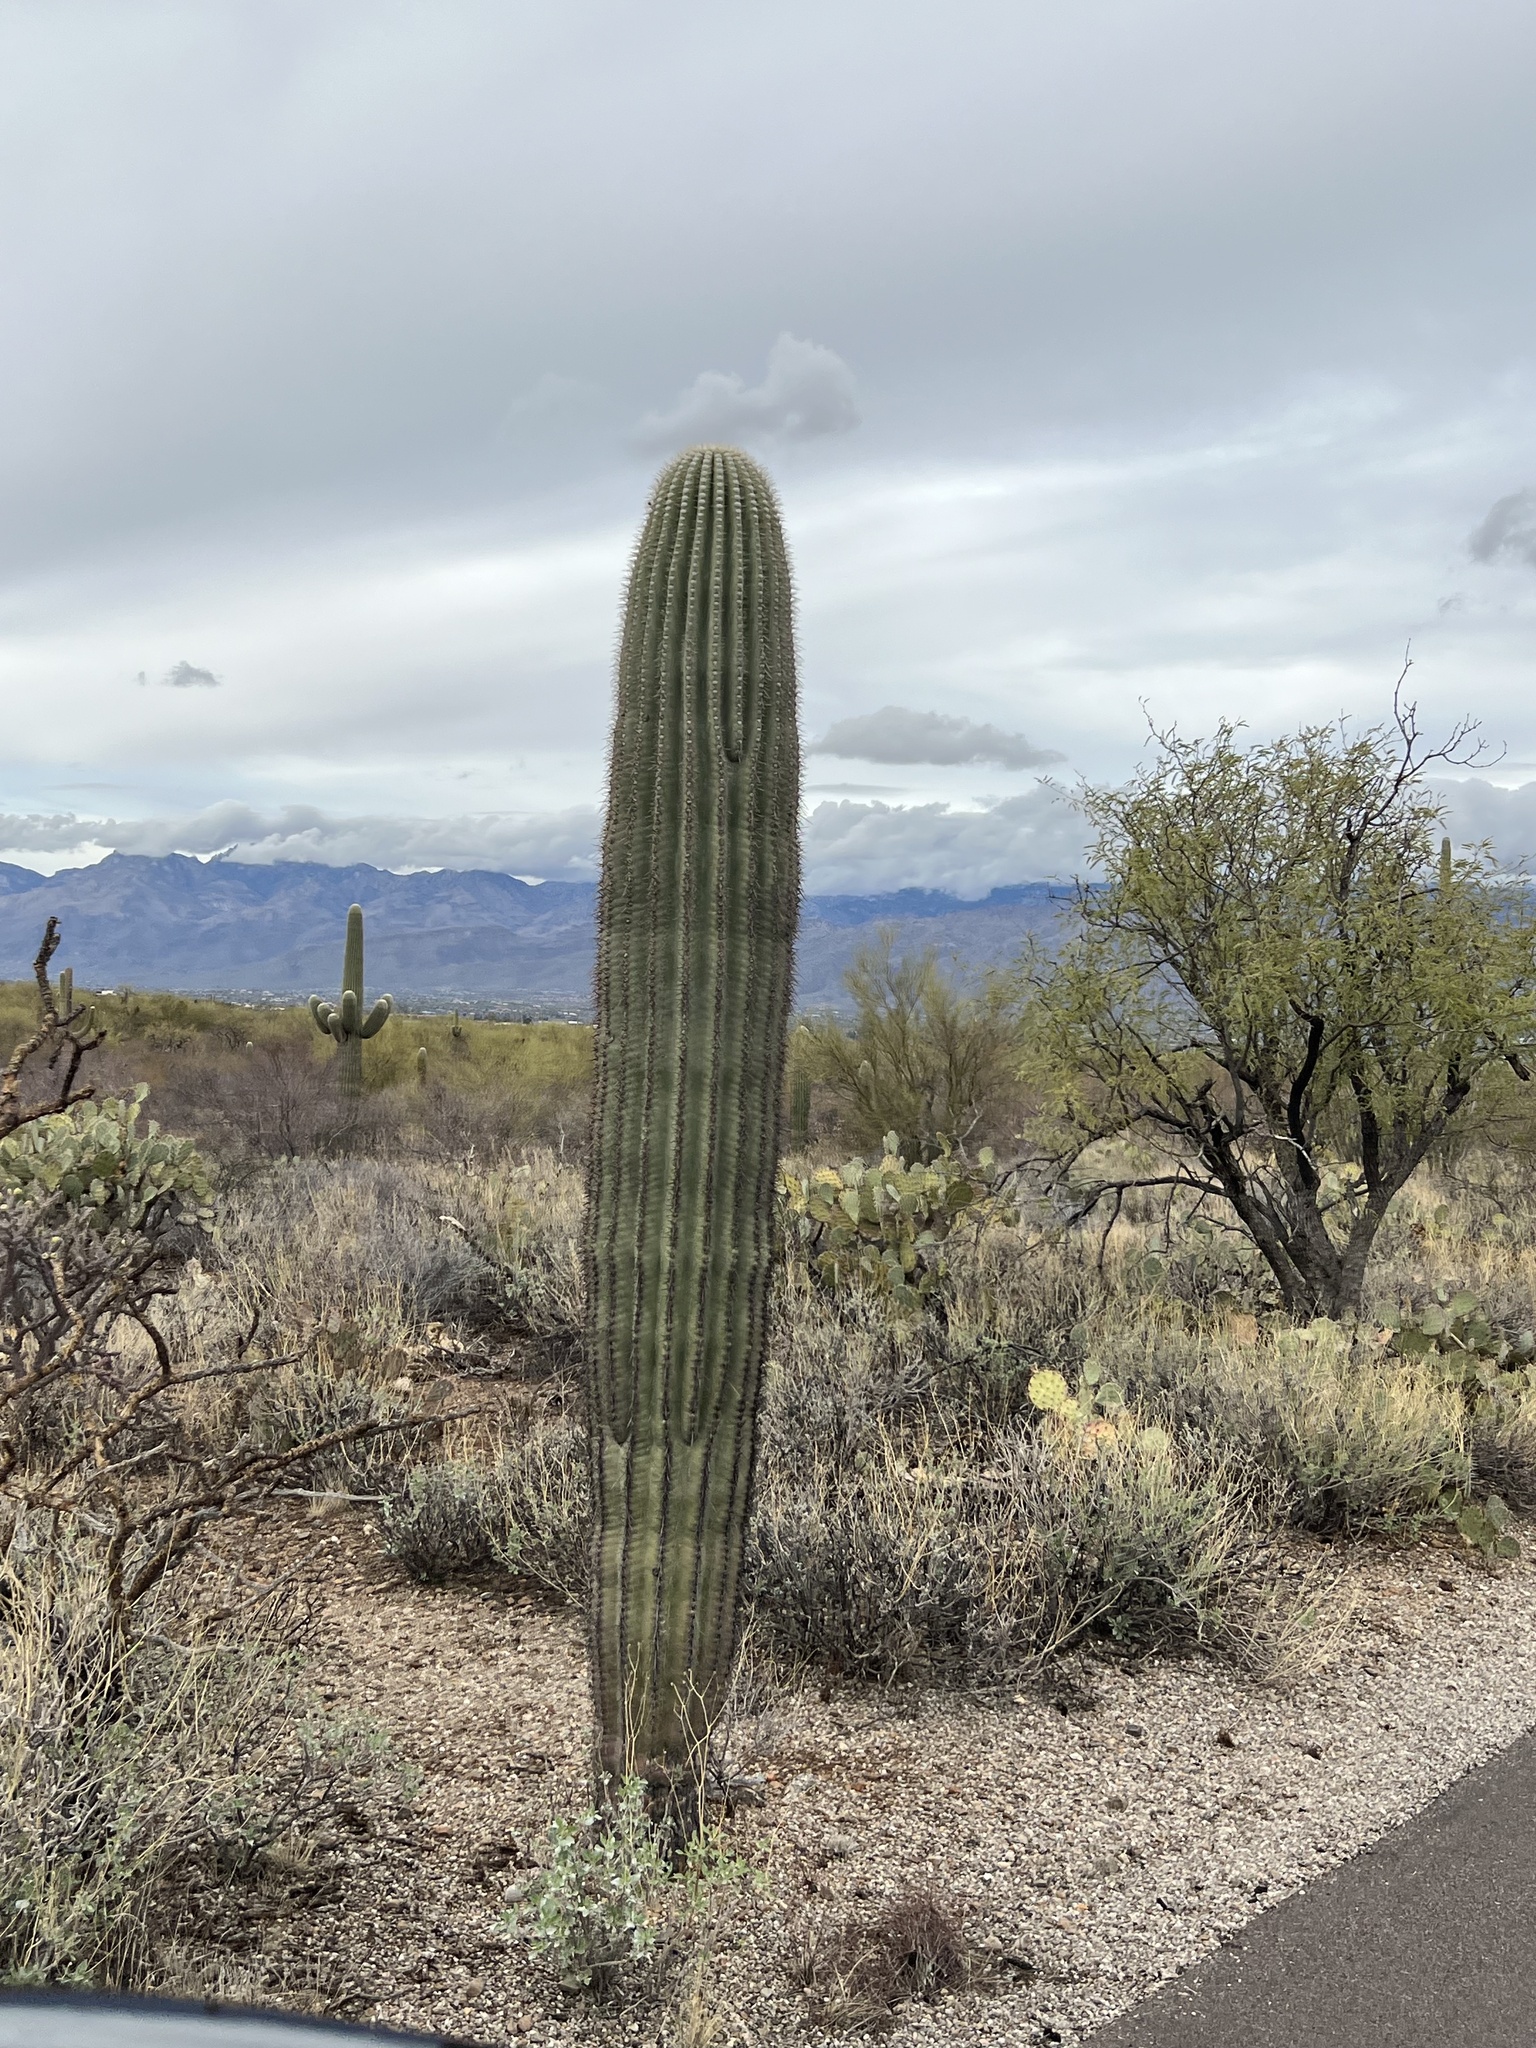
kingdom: Plantae
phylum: Tracheophyta
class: Magnoliopsida
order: Caryophyllales
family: Cactaceae
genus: Carnegiea
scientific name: Carnegiea gigantea
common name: Saguaro
